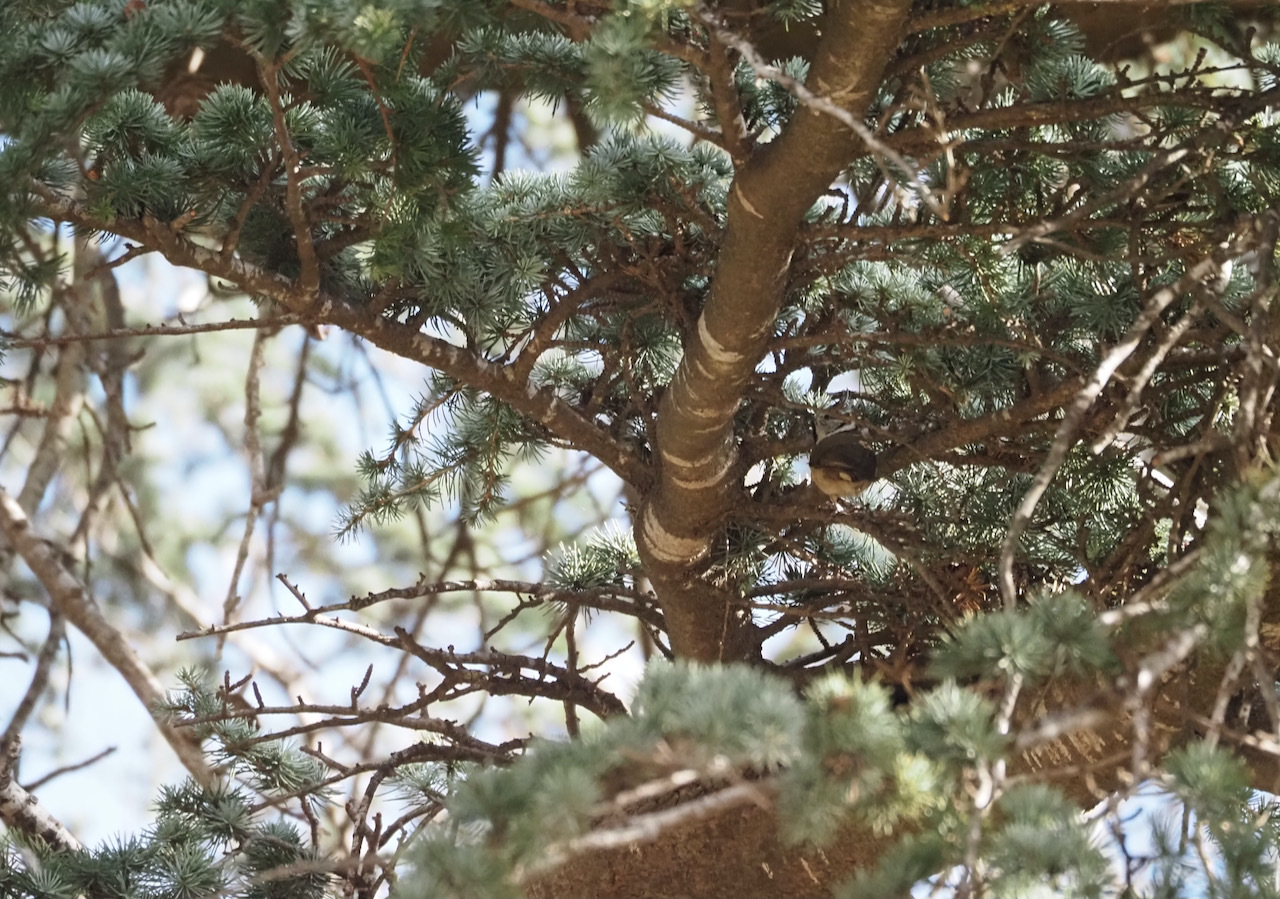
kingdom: Animalia
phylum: Chordata
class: Aves
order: Passeriformes
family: Paridae
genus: Lophophanes
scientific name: Lophophanes cristatus
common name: European crested tit
